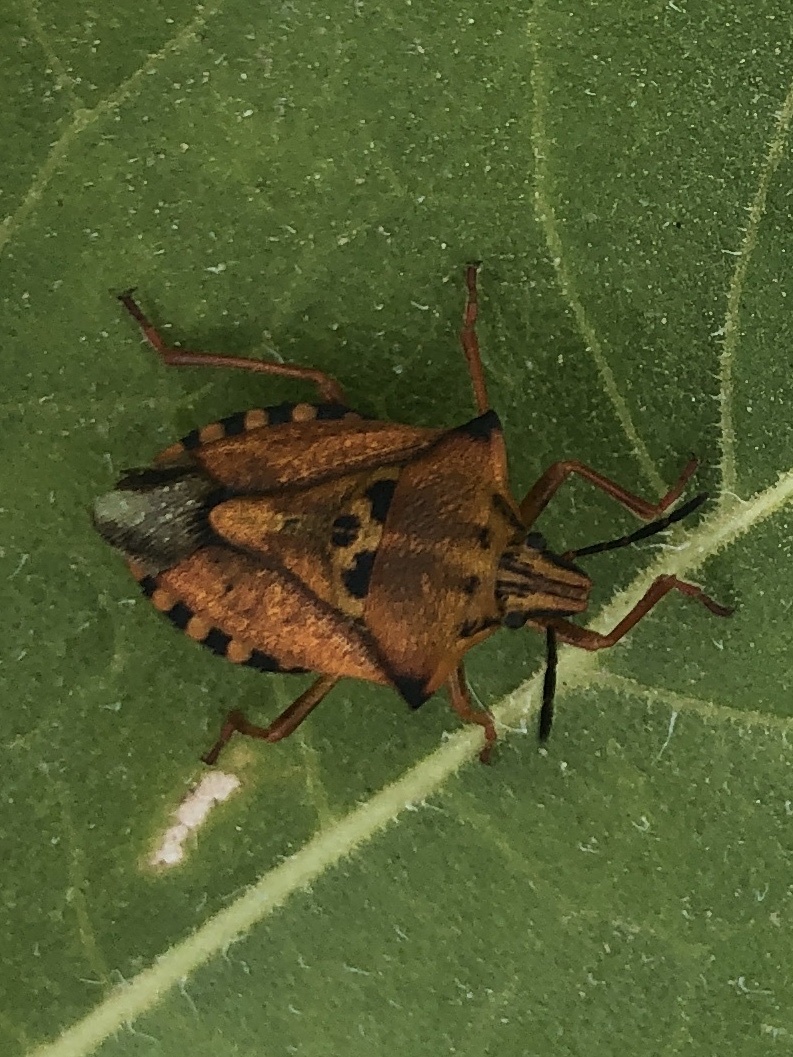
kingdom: Animalia
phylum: Arthropoda
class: Insecta
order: Hemiptera
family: Pentatomidae
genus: Carpocoris
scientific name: Carpocoris mediterraneus
